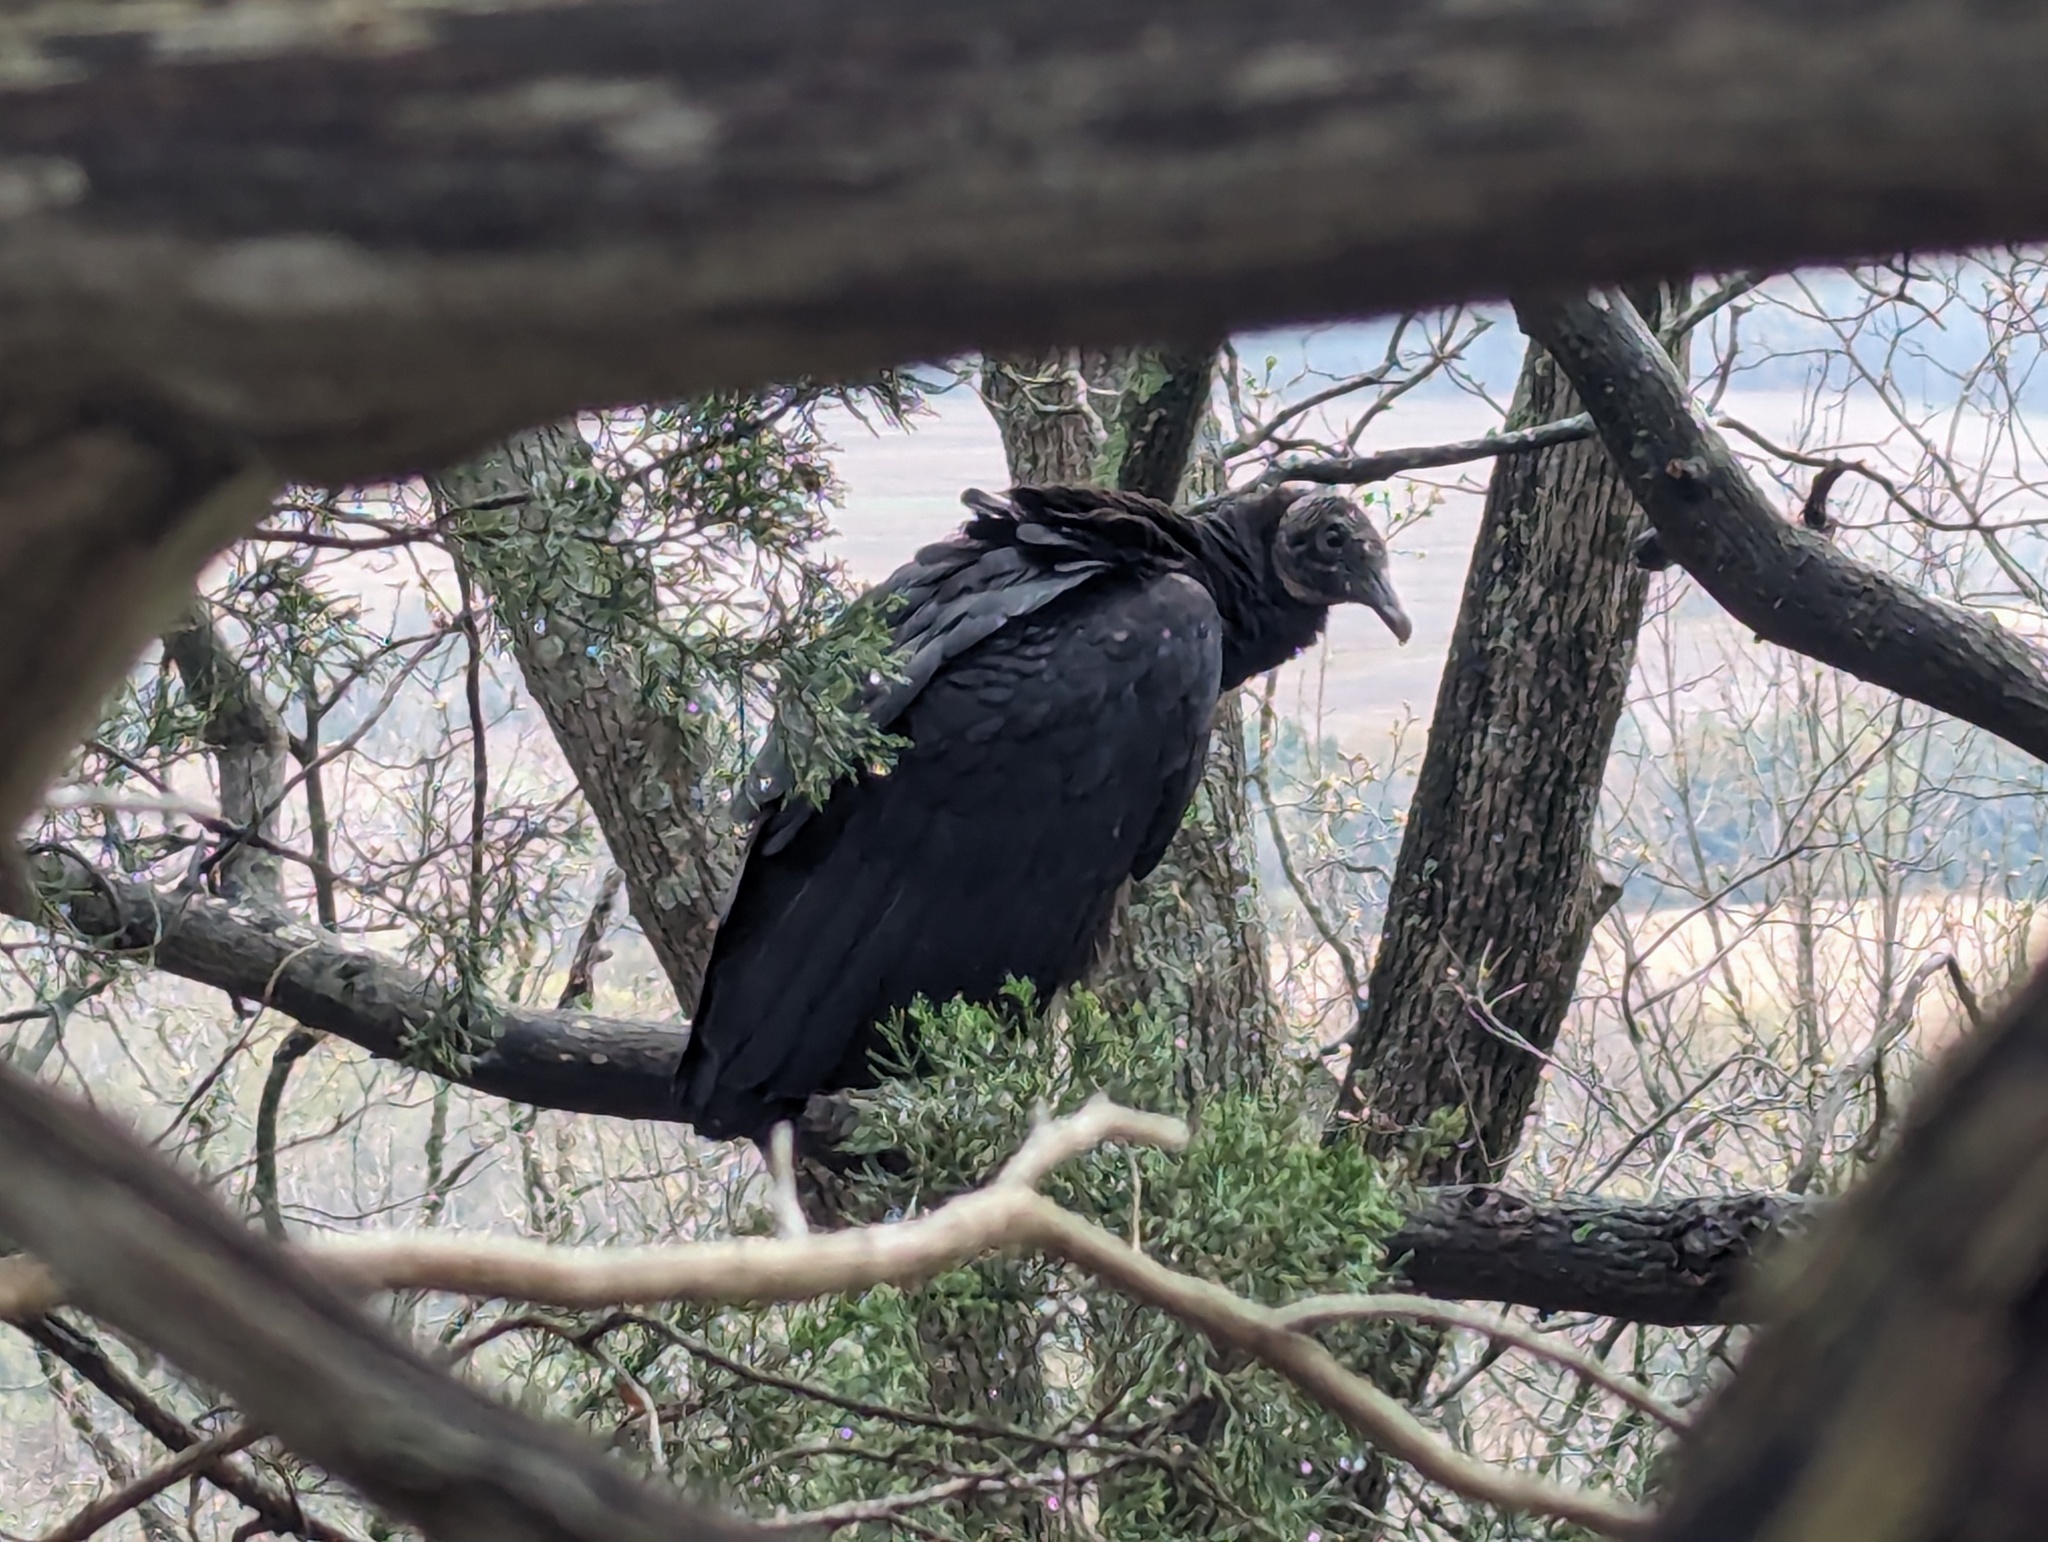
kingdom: Animalia
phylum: Chordata
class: Aves
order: Accipitriformes
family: Cathartidae
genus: Coragyps
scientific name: Coragyps atratus
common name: Black vulture
